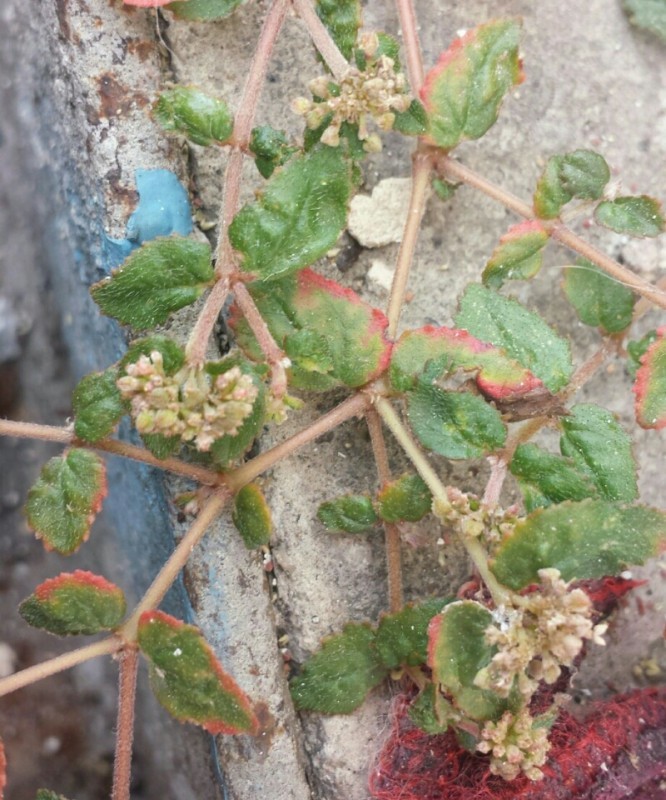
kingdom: Plantae
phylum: Tracheophyta
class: Magnoliopsida
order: Malpighiales
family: Euphorbiaceae
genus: Euphorbia
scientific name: Euphorbia ophthalmica
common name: Florida hammock sandmat
